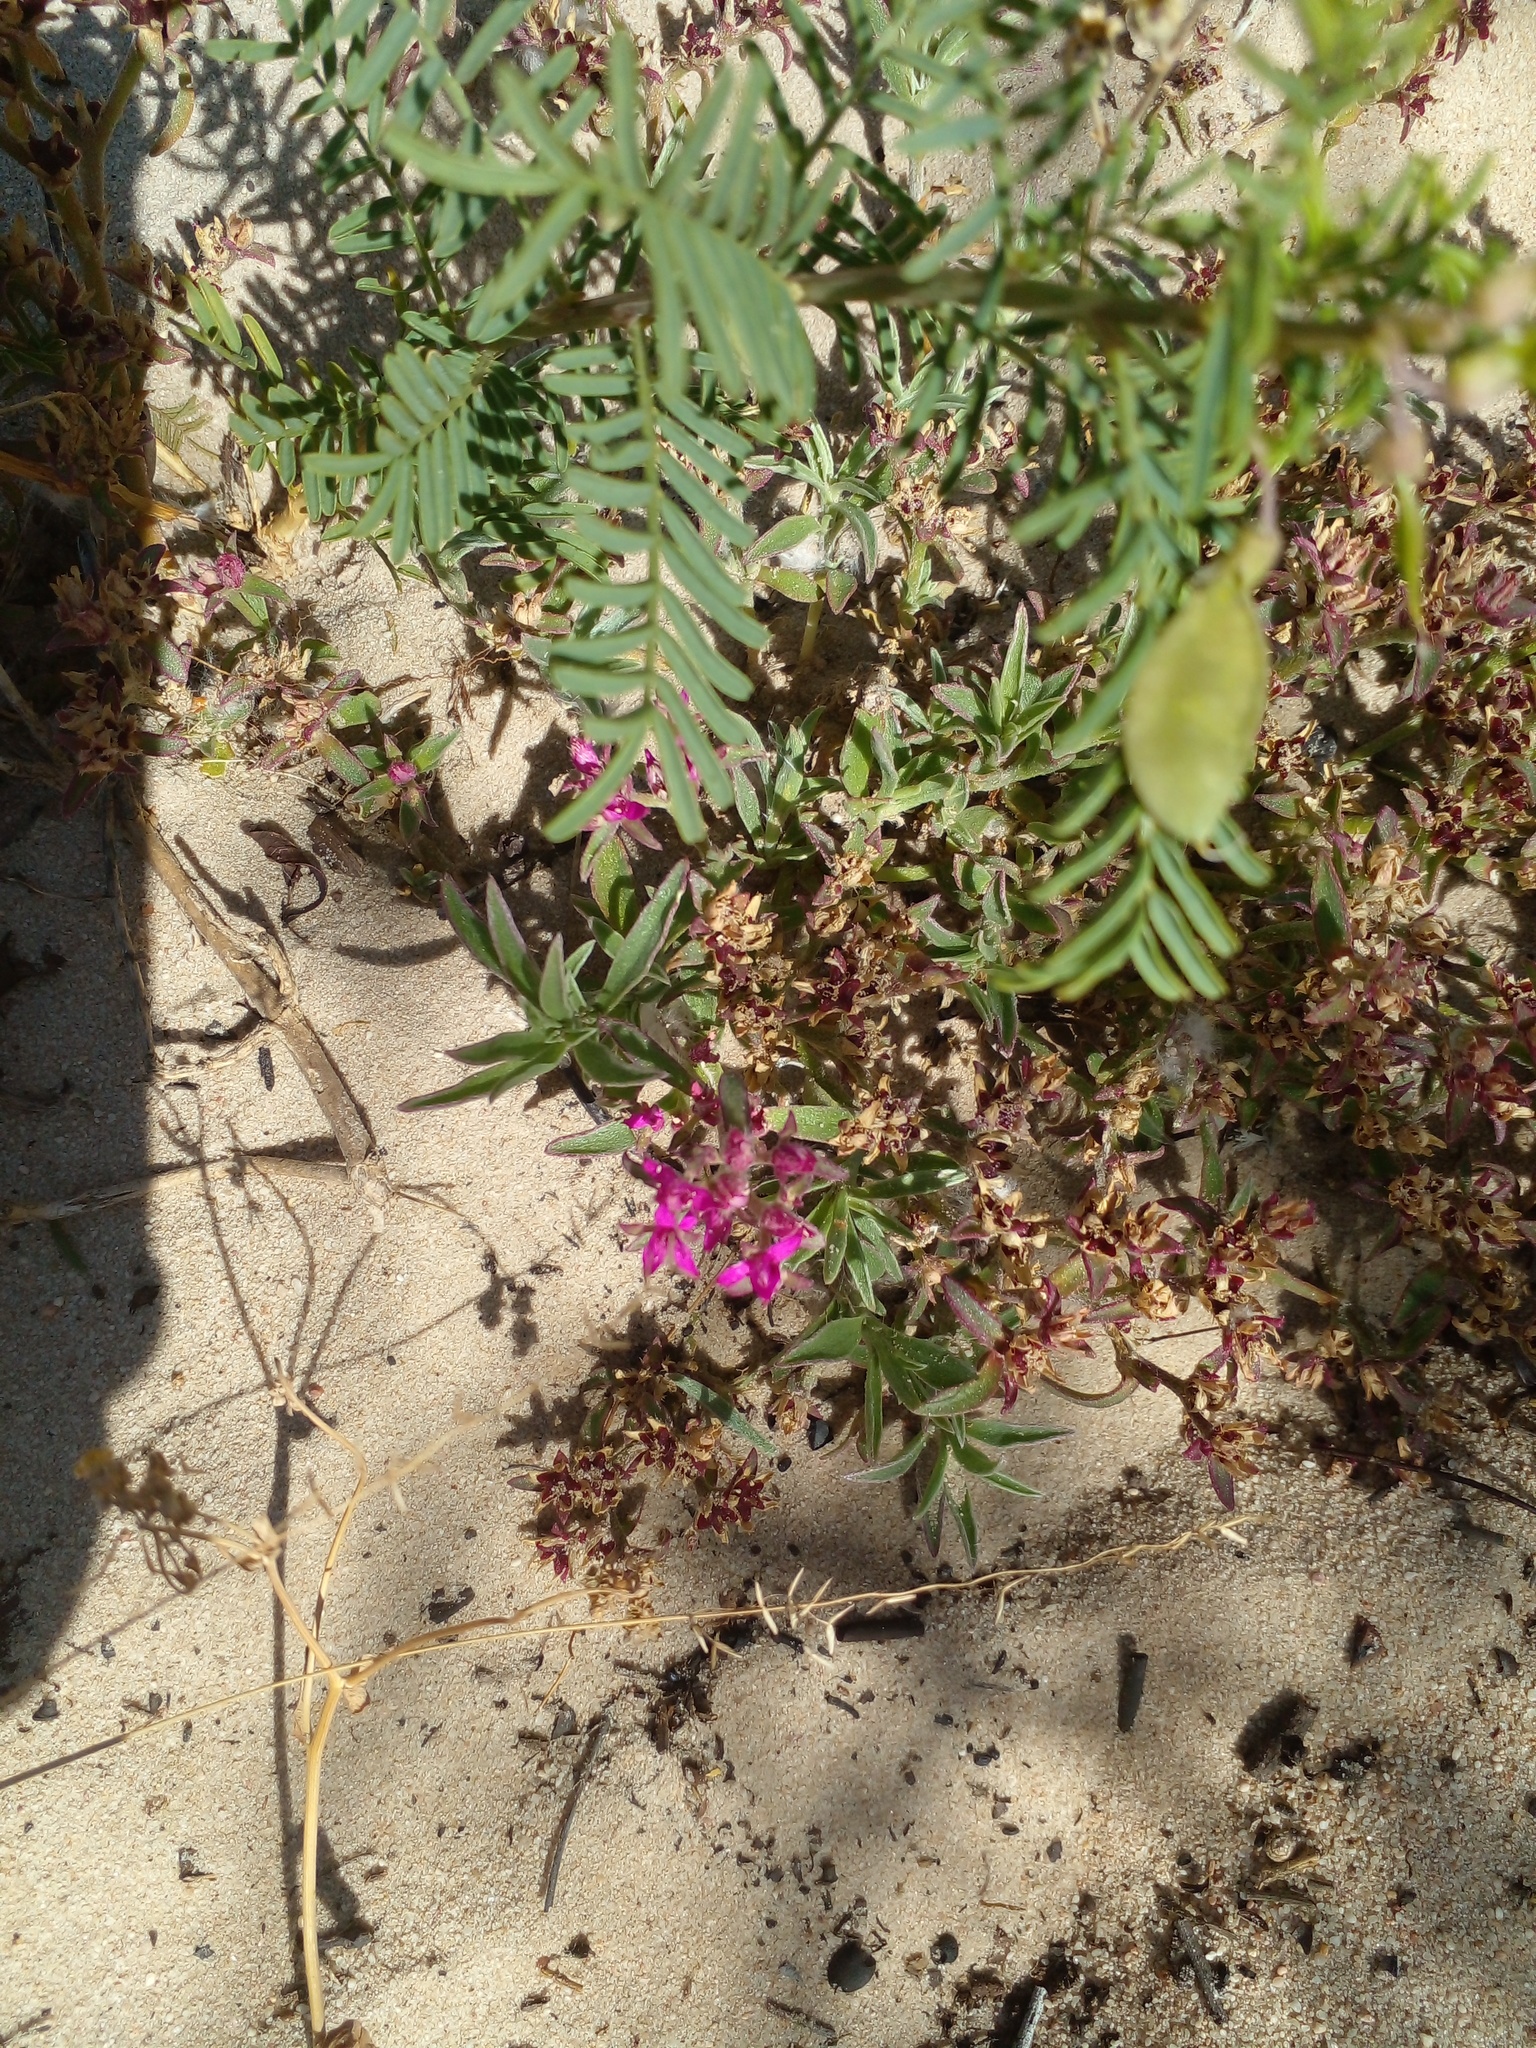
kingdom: Plantae
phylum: Tracheophyta
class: Magnoliopsida
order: Caryophyllales
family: Aizoaceae
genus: Aizoon
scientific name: Aizoon paniculatum
